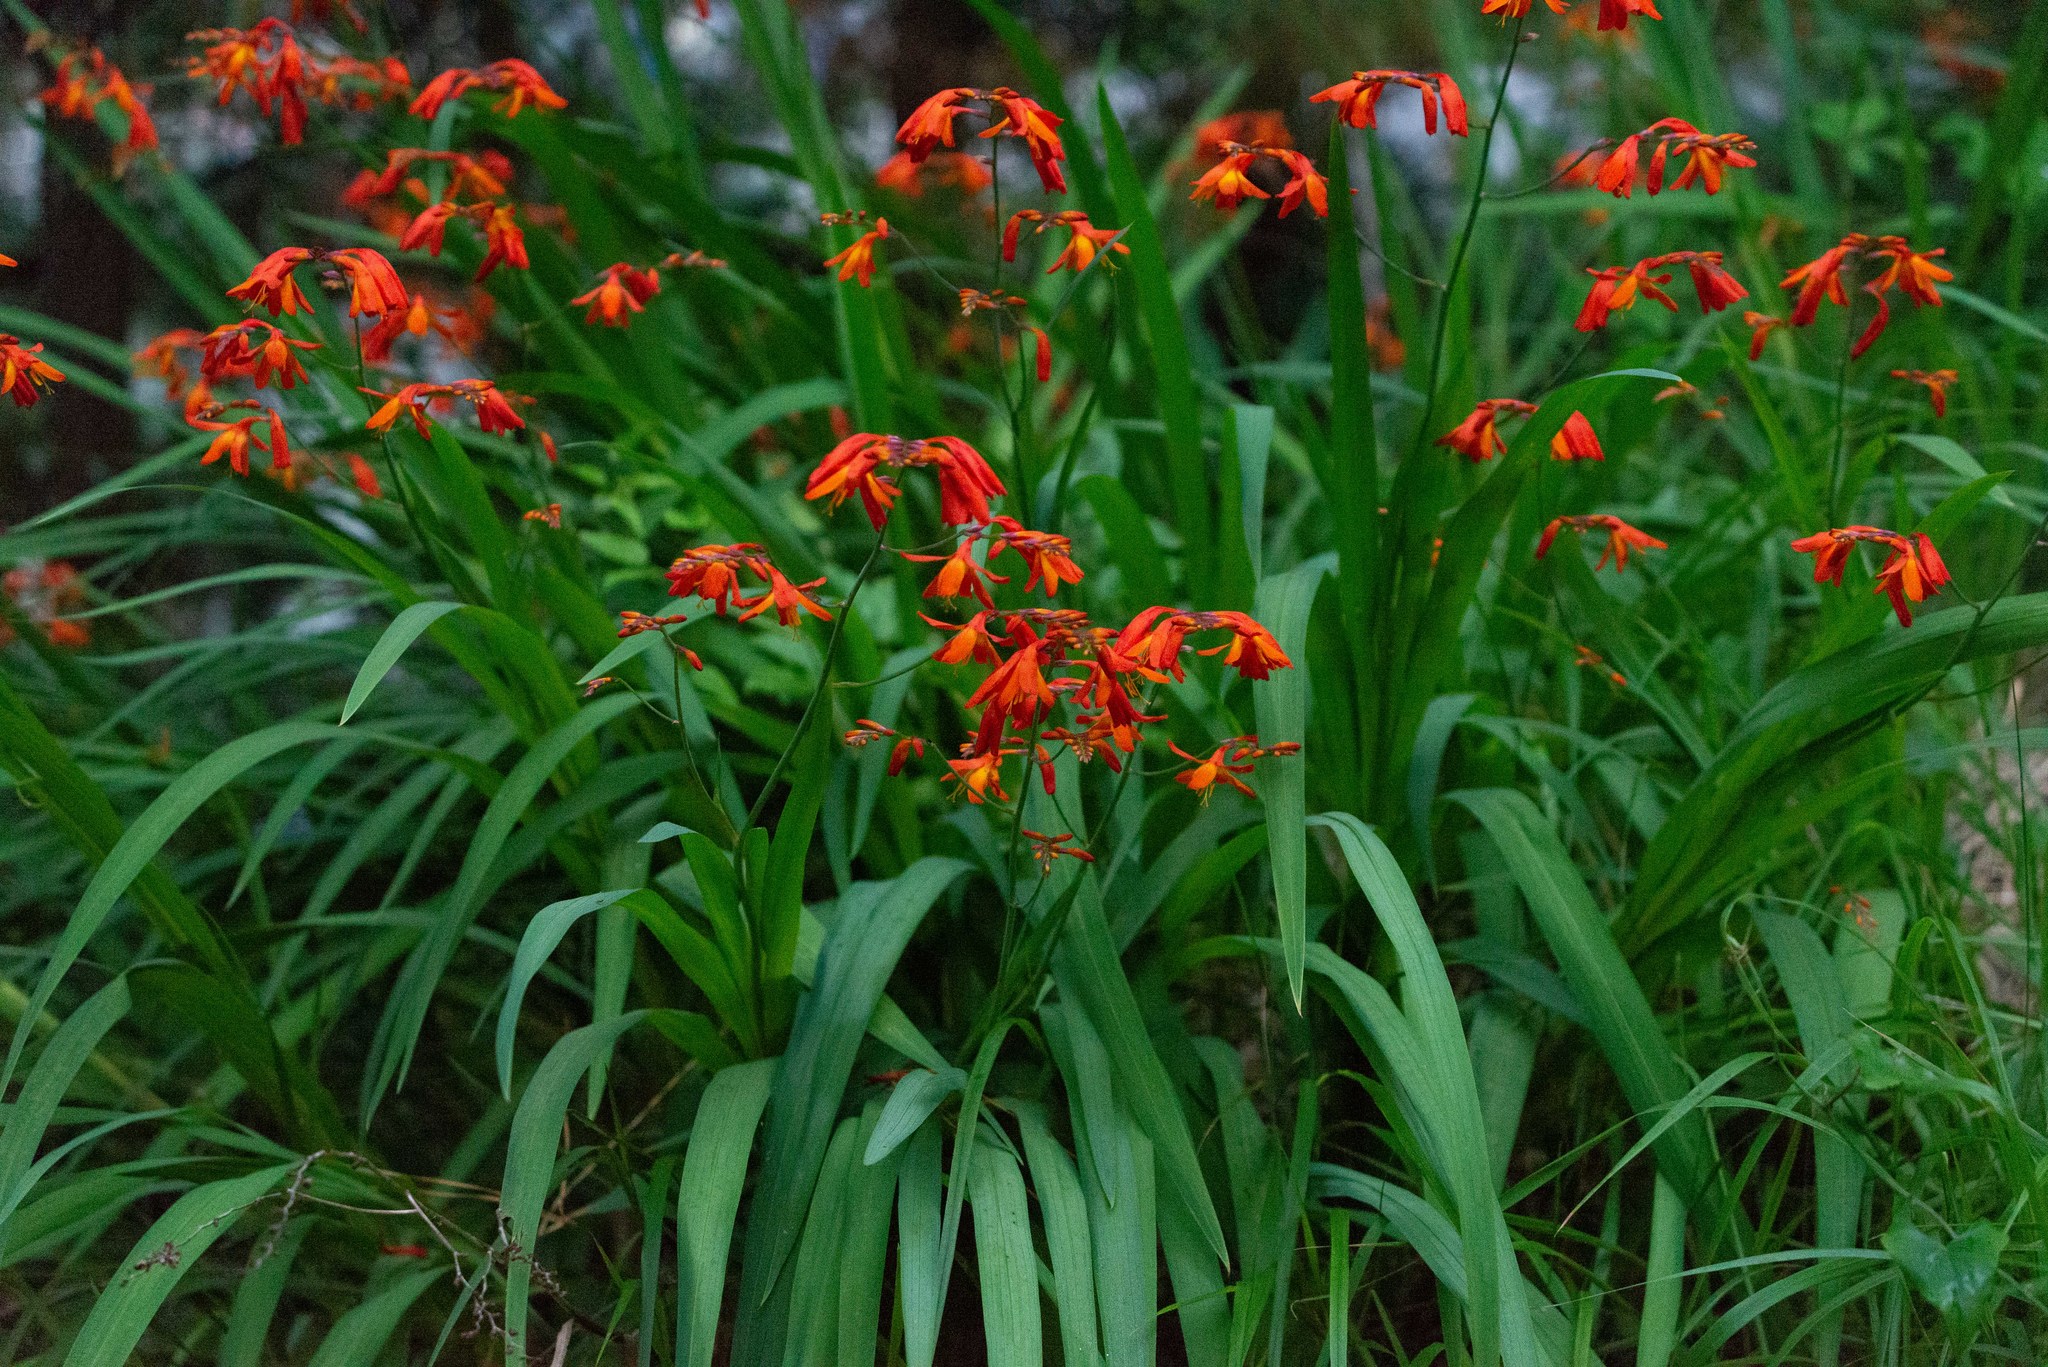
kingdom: Plantae
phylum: Tracheophyta
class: Liliopsida
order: Asparagales
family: Iridaceae
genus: Crocosmia
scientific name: Crocosmia crocosmiiflora
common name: Montbretia
